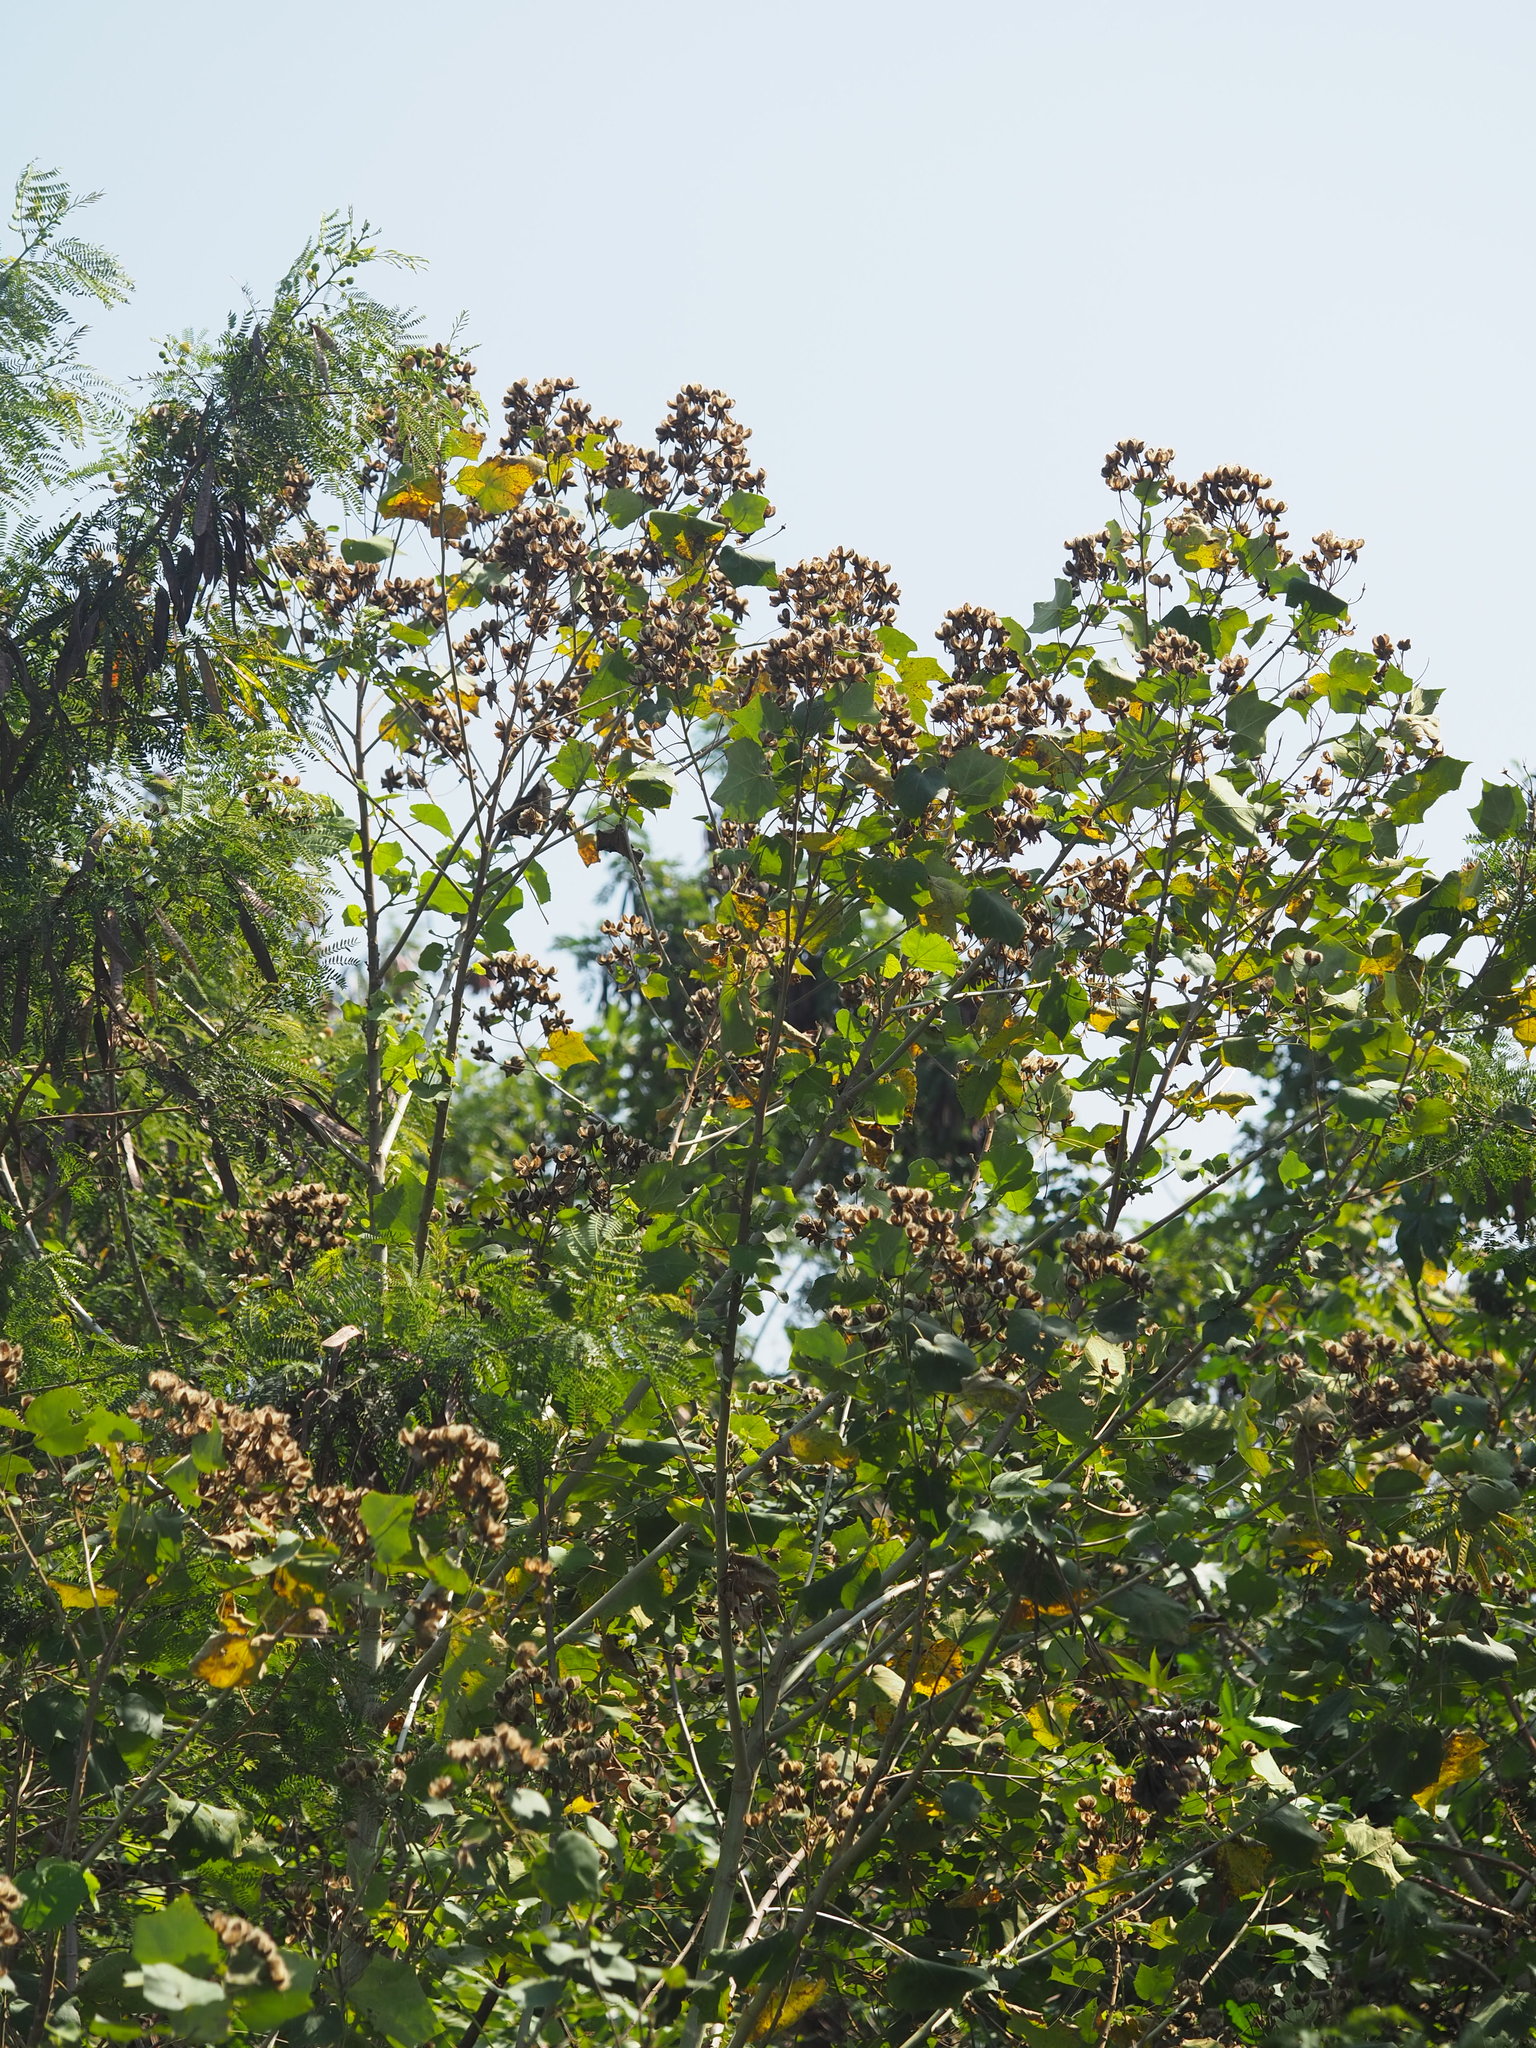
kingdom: Plantae
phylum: Tracheophyta
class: Magnoliopsida
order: Malvales
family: Malvaceae
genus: Hibiscus
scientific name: Hibiscus taiwanensis
